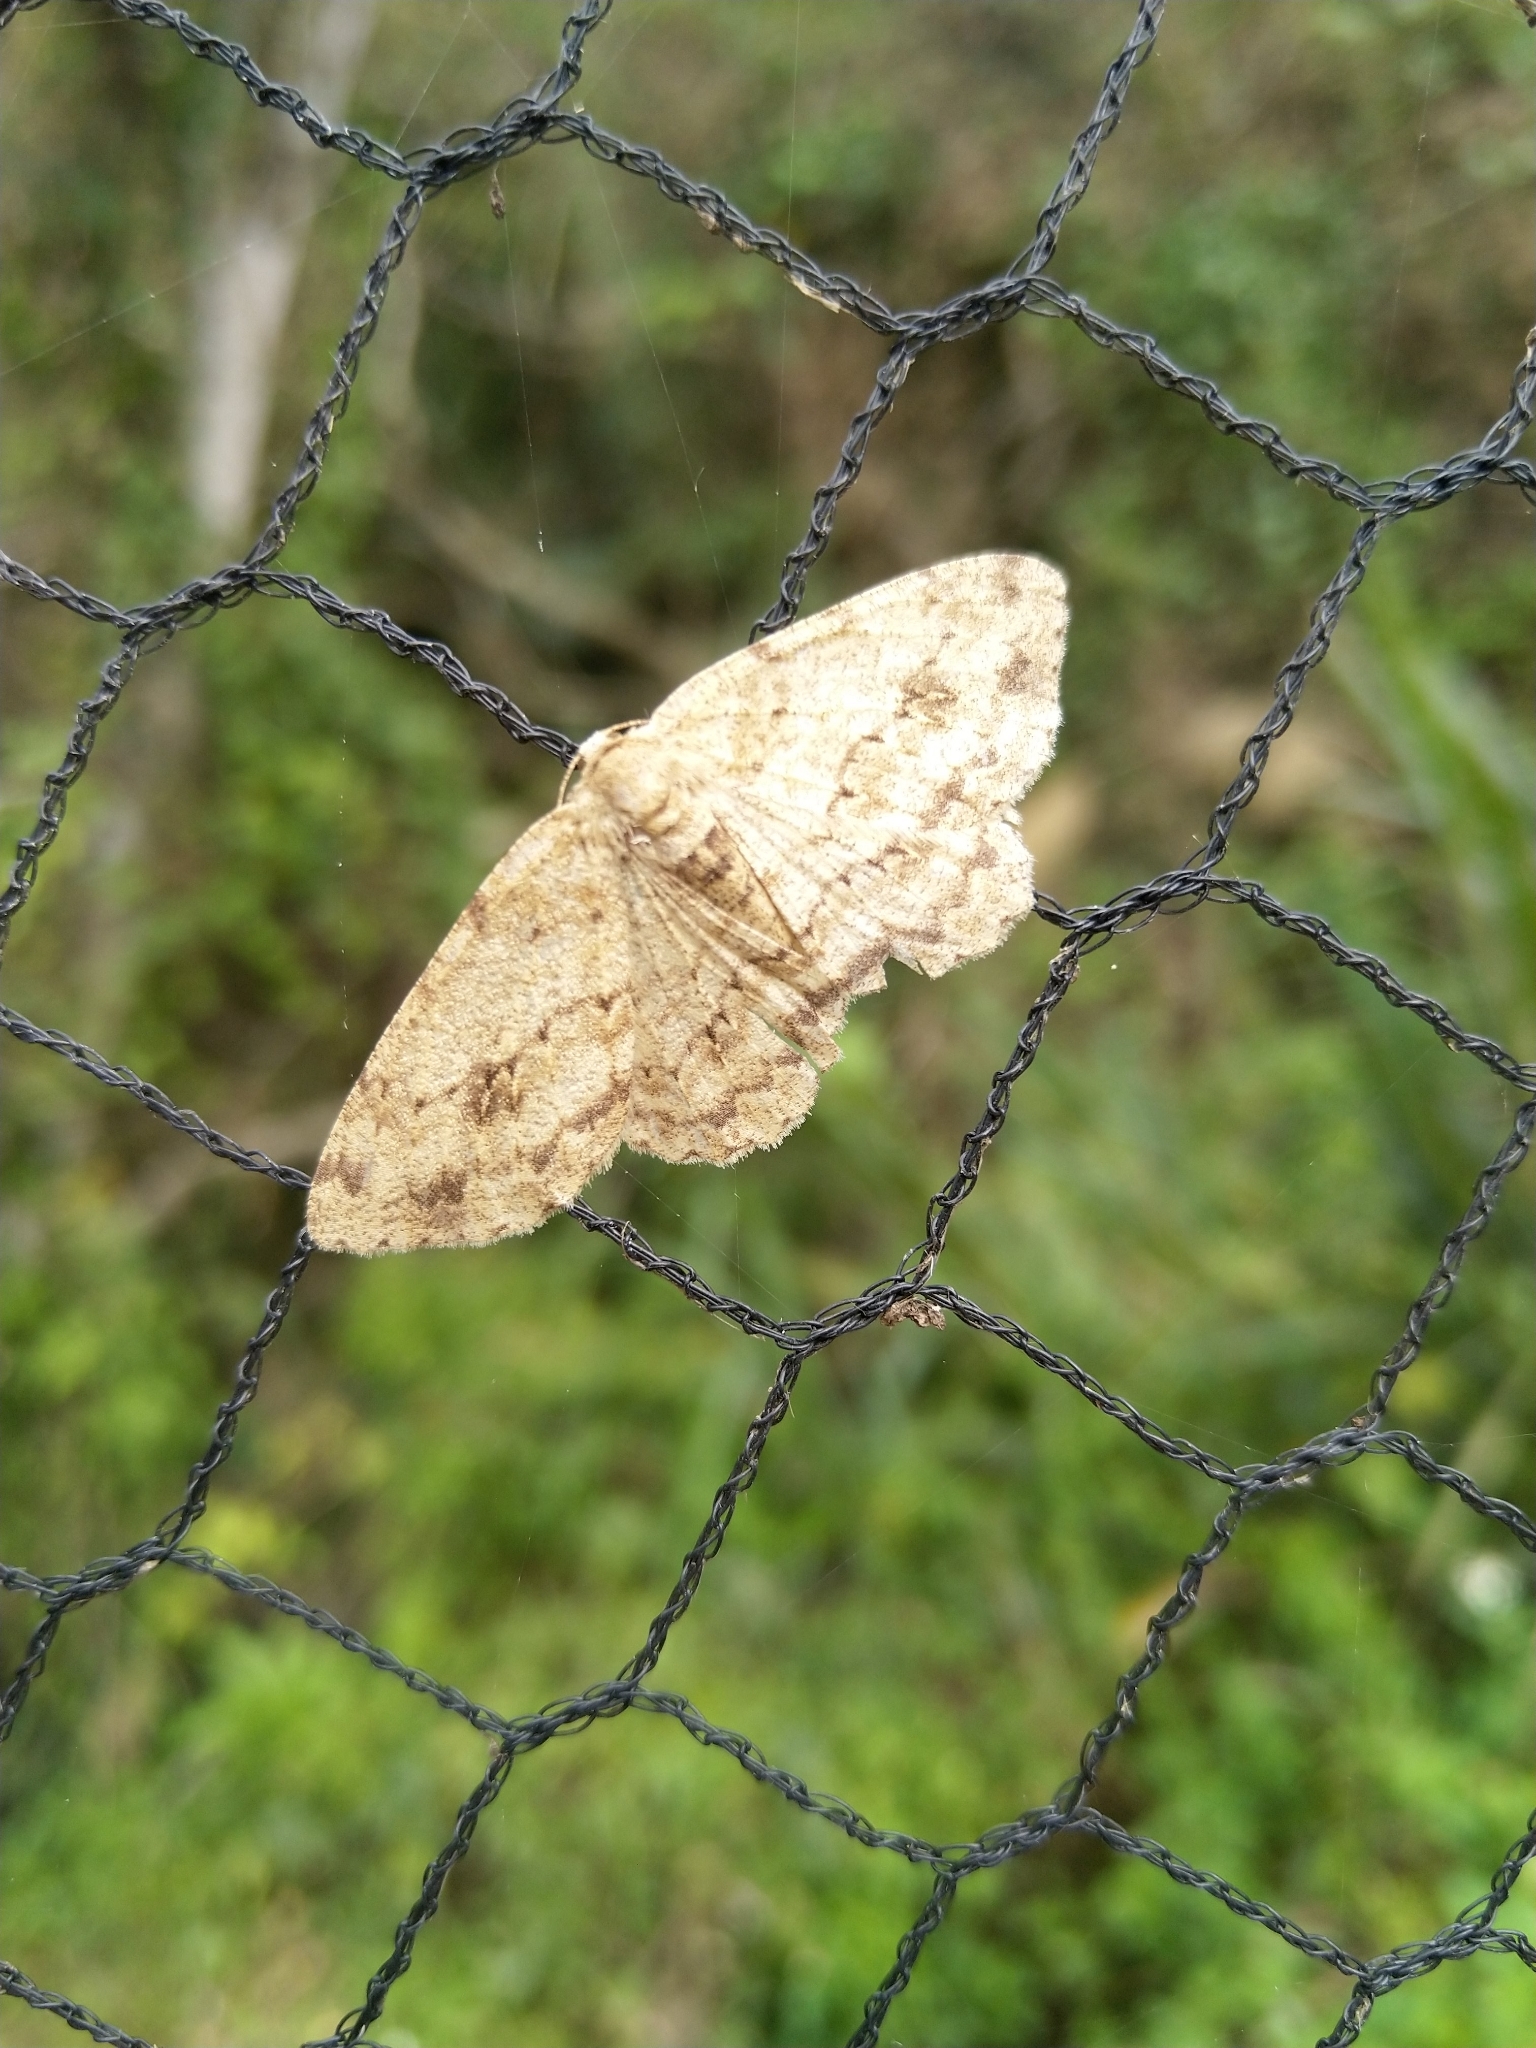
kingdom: Animalia
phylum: Arthropoda
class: Insecta
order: Lepidoptera
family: Geometridae
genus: Ectropis
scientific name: Ectropis crepuscularia
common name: Engrailed
